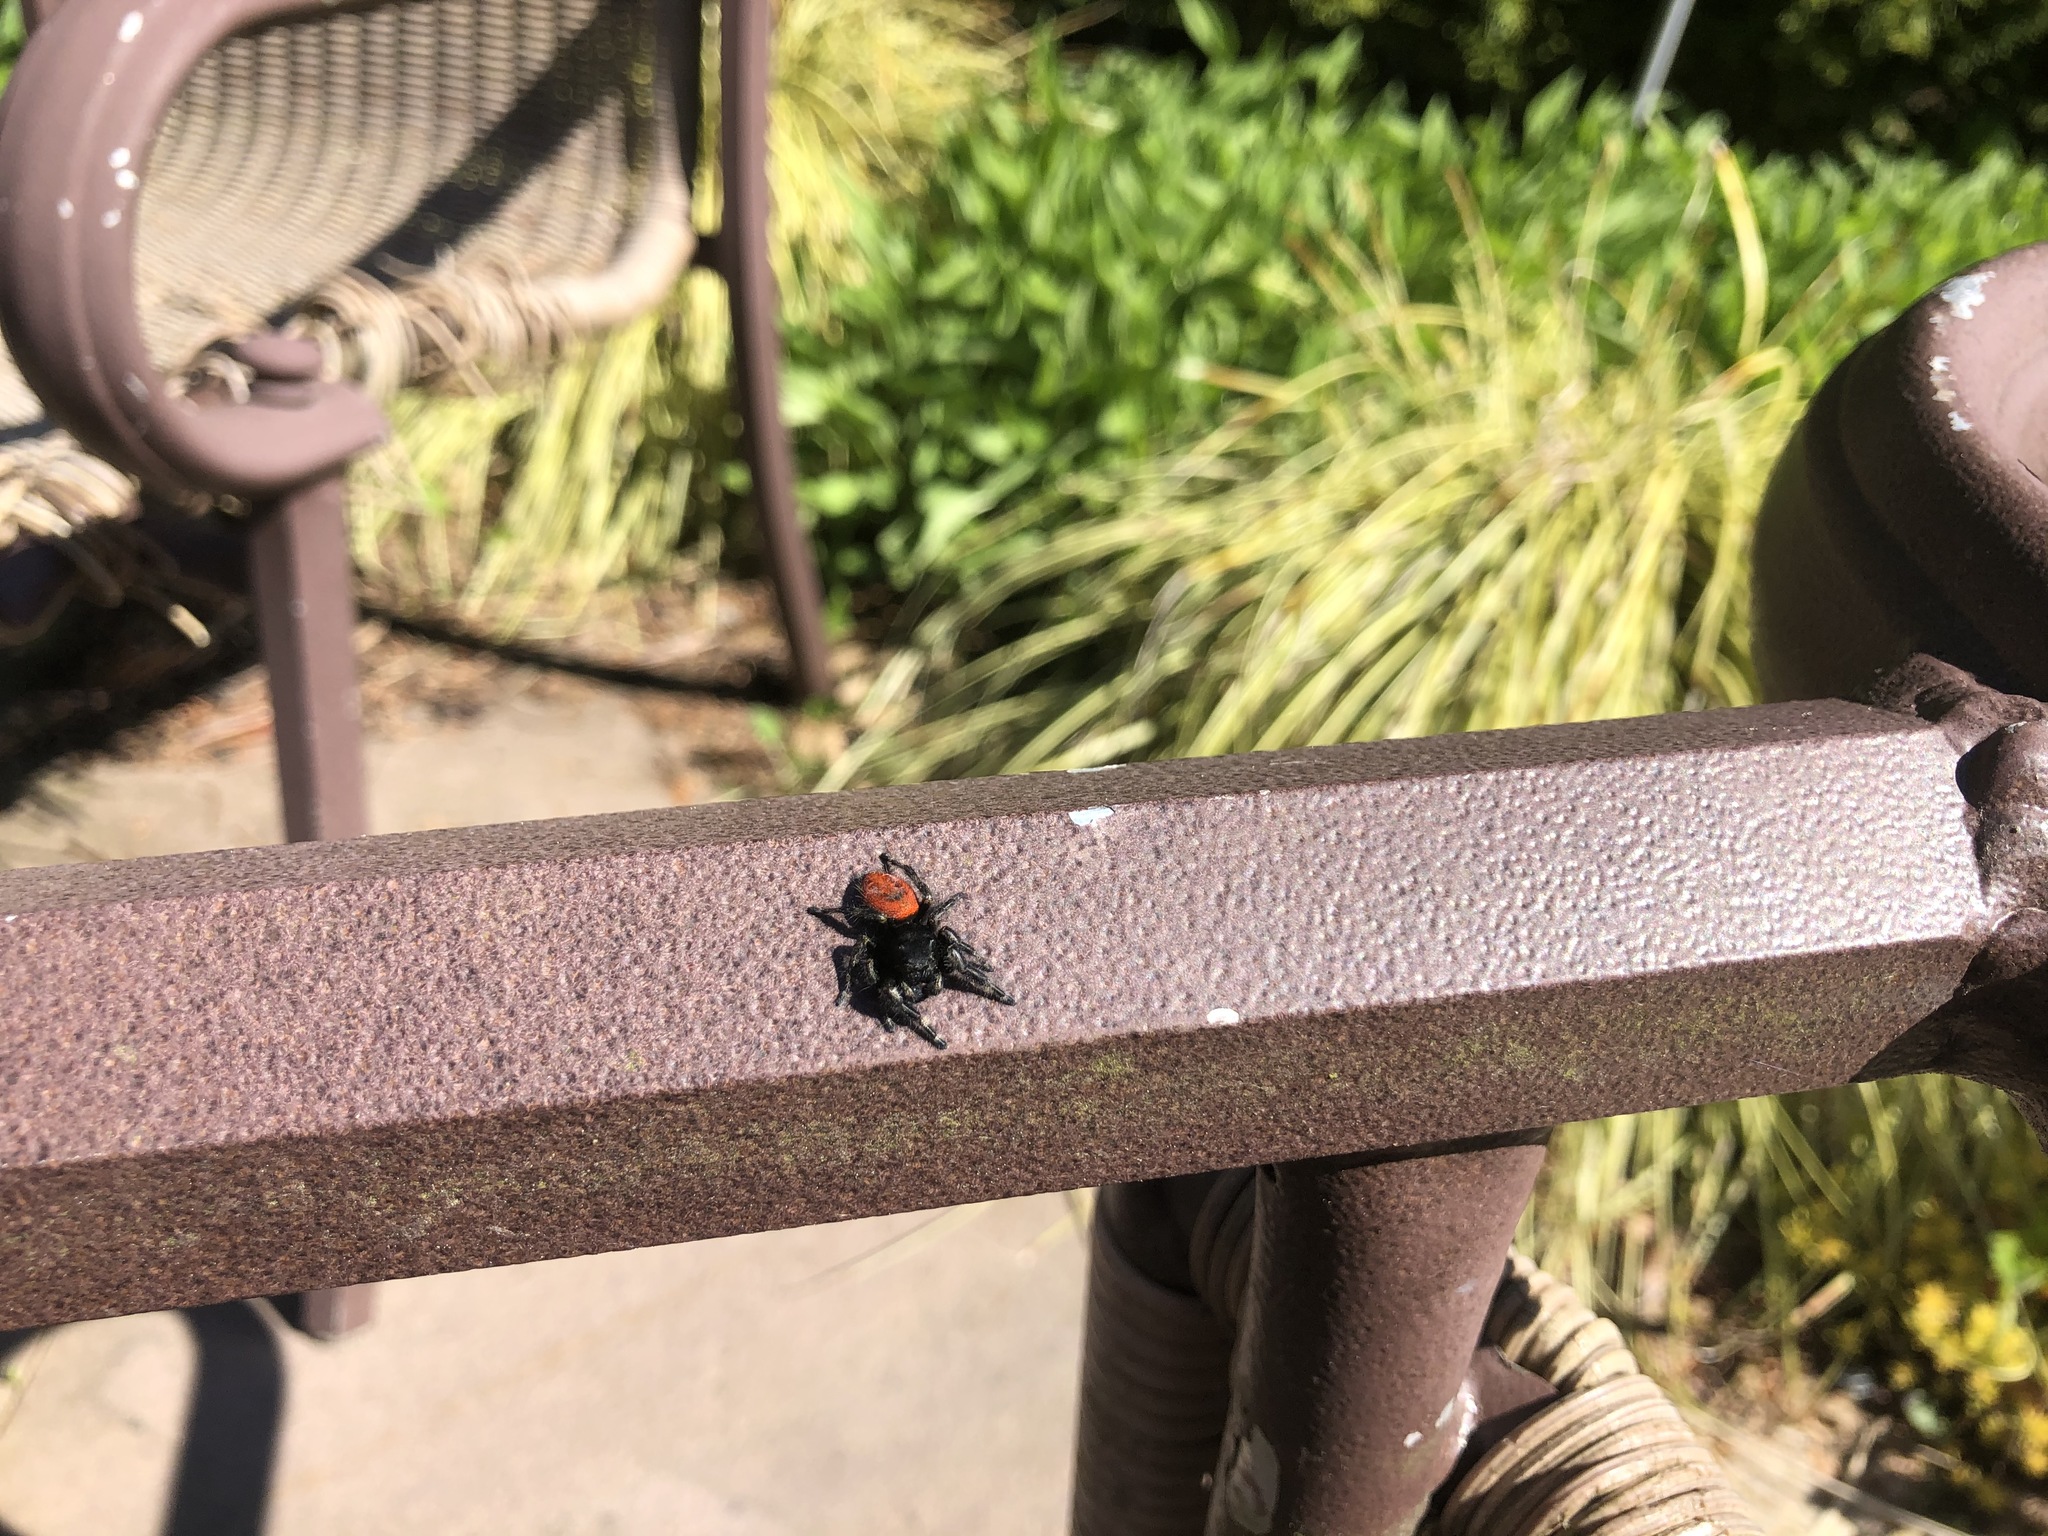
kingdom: Animalia
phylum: Arthropoda
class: Arachnida
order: Araneae
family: Salticidae
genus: Phidippus
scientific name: Phidippus johnsoni
